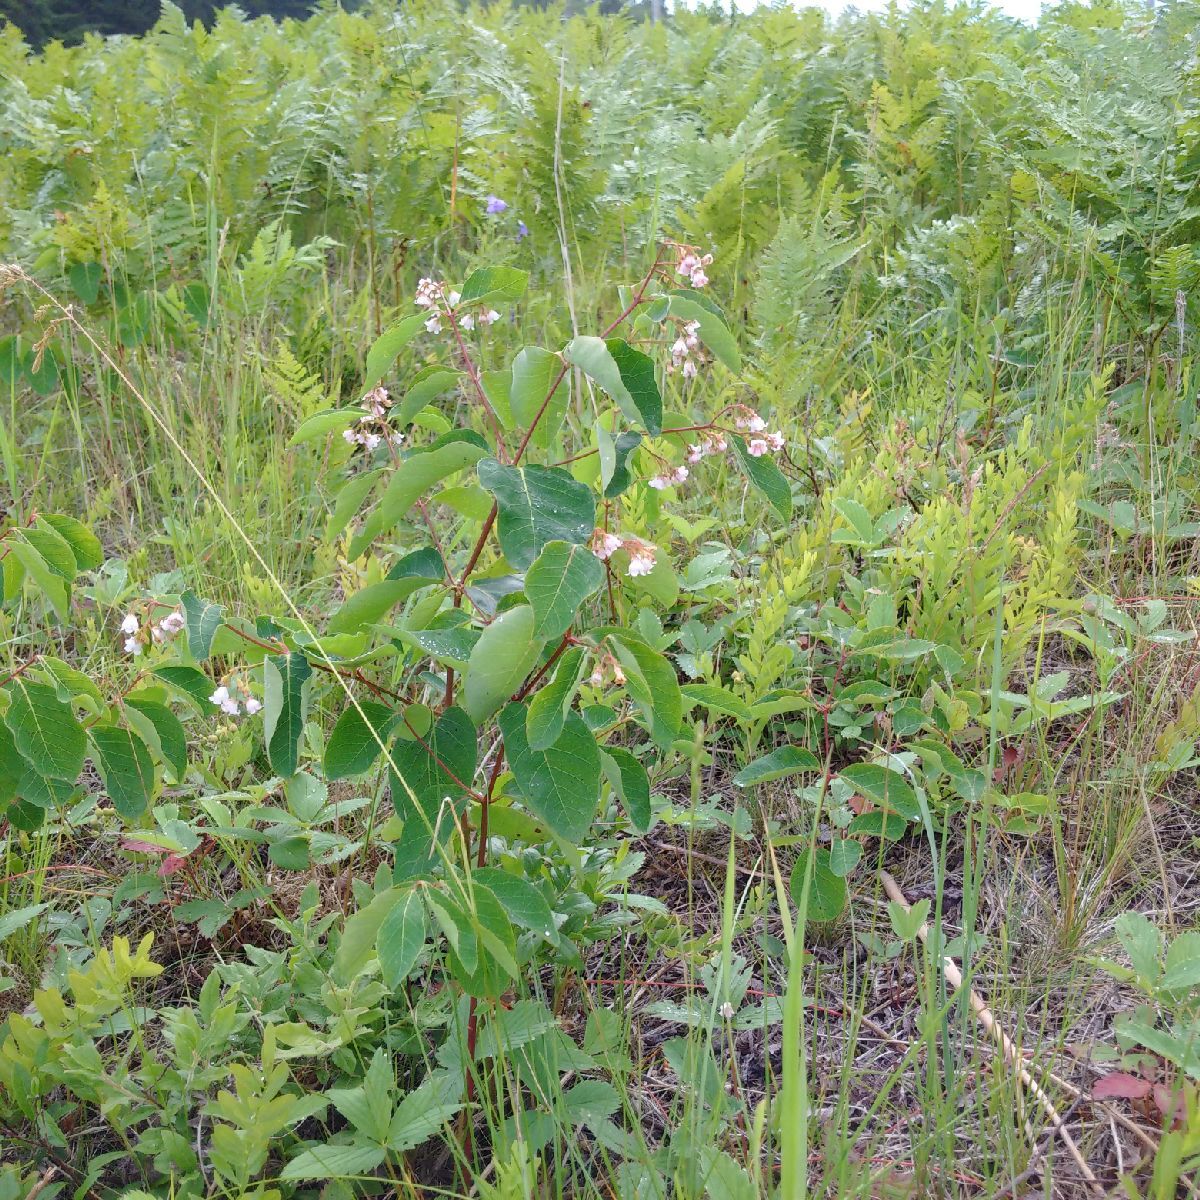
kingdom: Plantae
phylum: Tracheophyta
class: Magnoliopsida
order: Gentianales
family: Apocynaceae
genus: Apocynum
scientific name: Apocynum androsaemifolium
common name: Spreading dogbane
